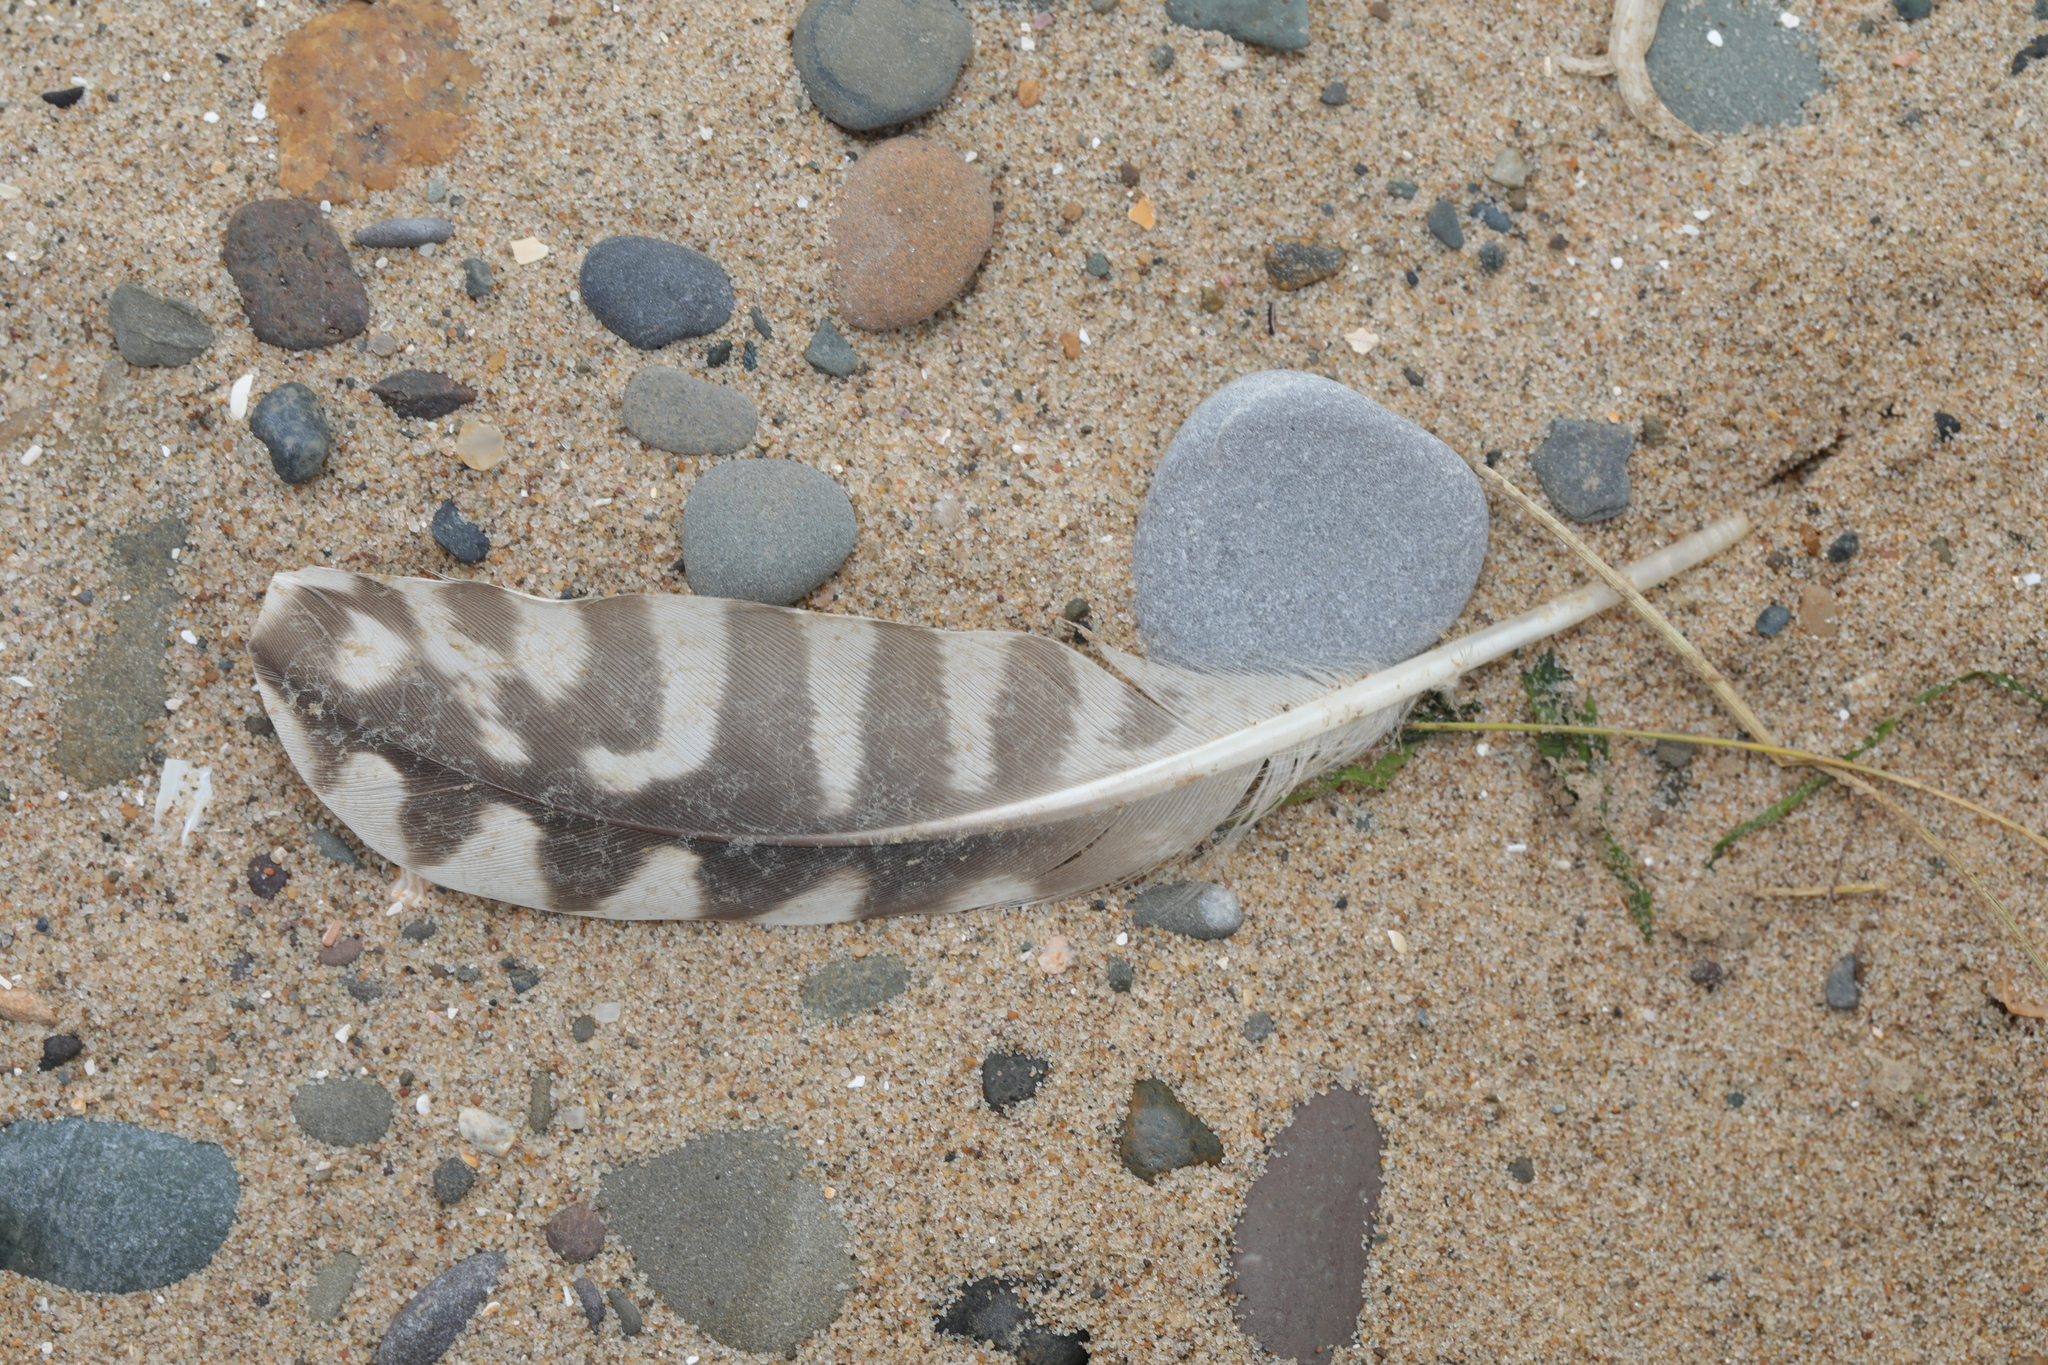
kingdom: Animalia
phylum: Chordata
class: Aves
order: Charadriiformes
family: Scolopacidae
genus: Numenius
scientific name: Numenius arquata
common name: Eurasian curlew
